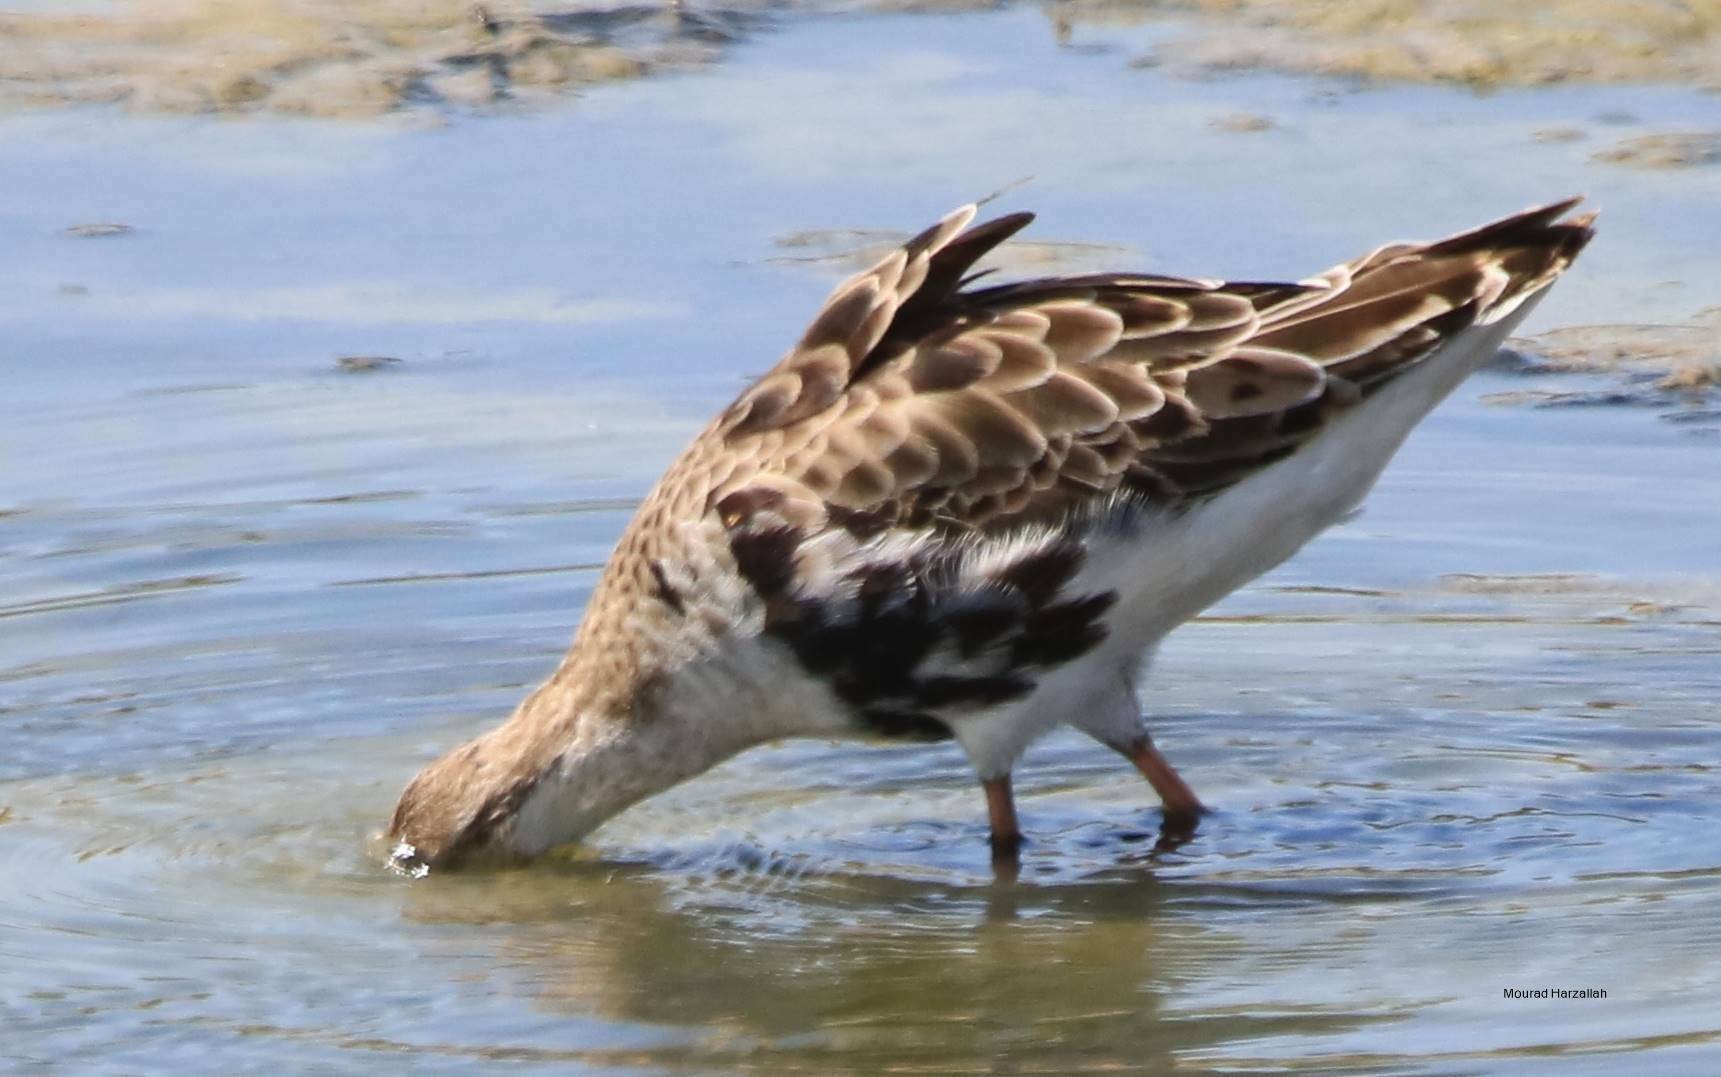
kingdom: Animalia
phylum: Chordata
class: Aves
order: Charadriiformes
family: Scolopacidae
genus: Calidris
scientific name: Calidris pugnax
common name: Ruff
